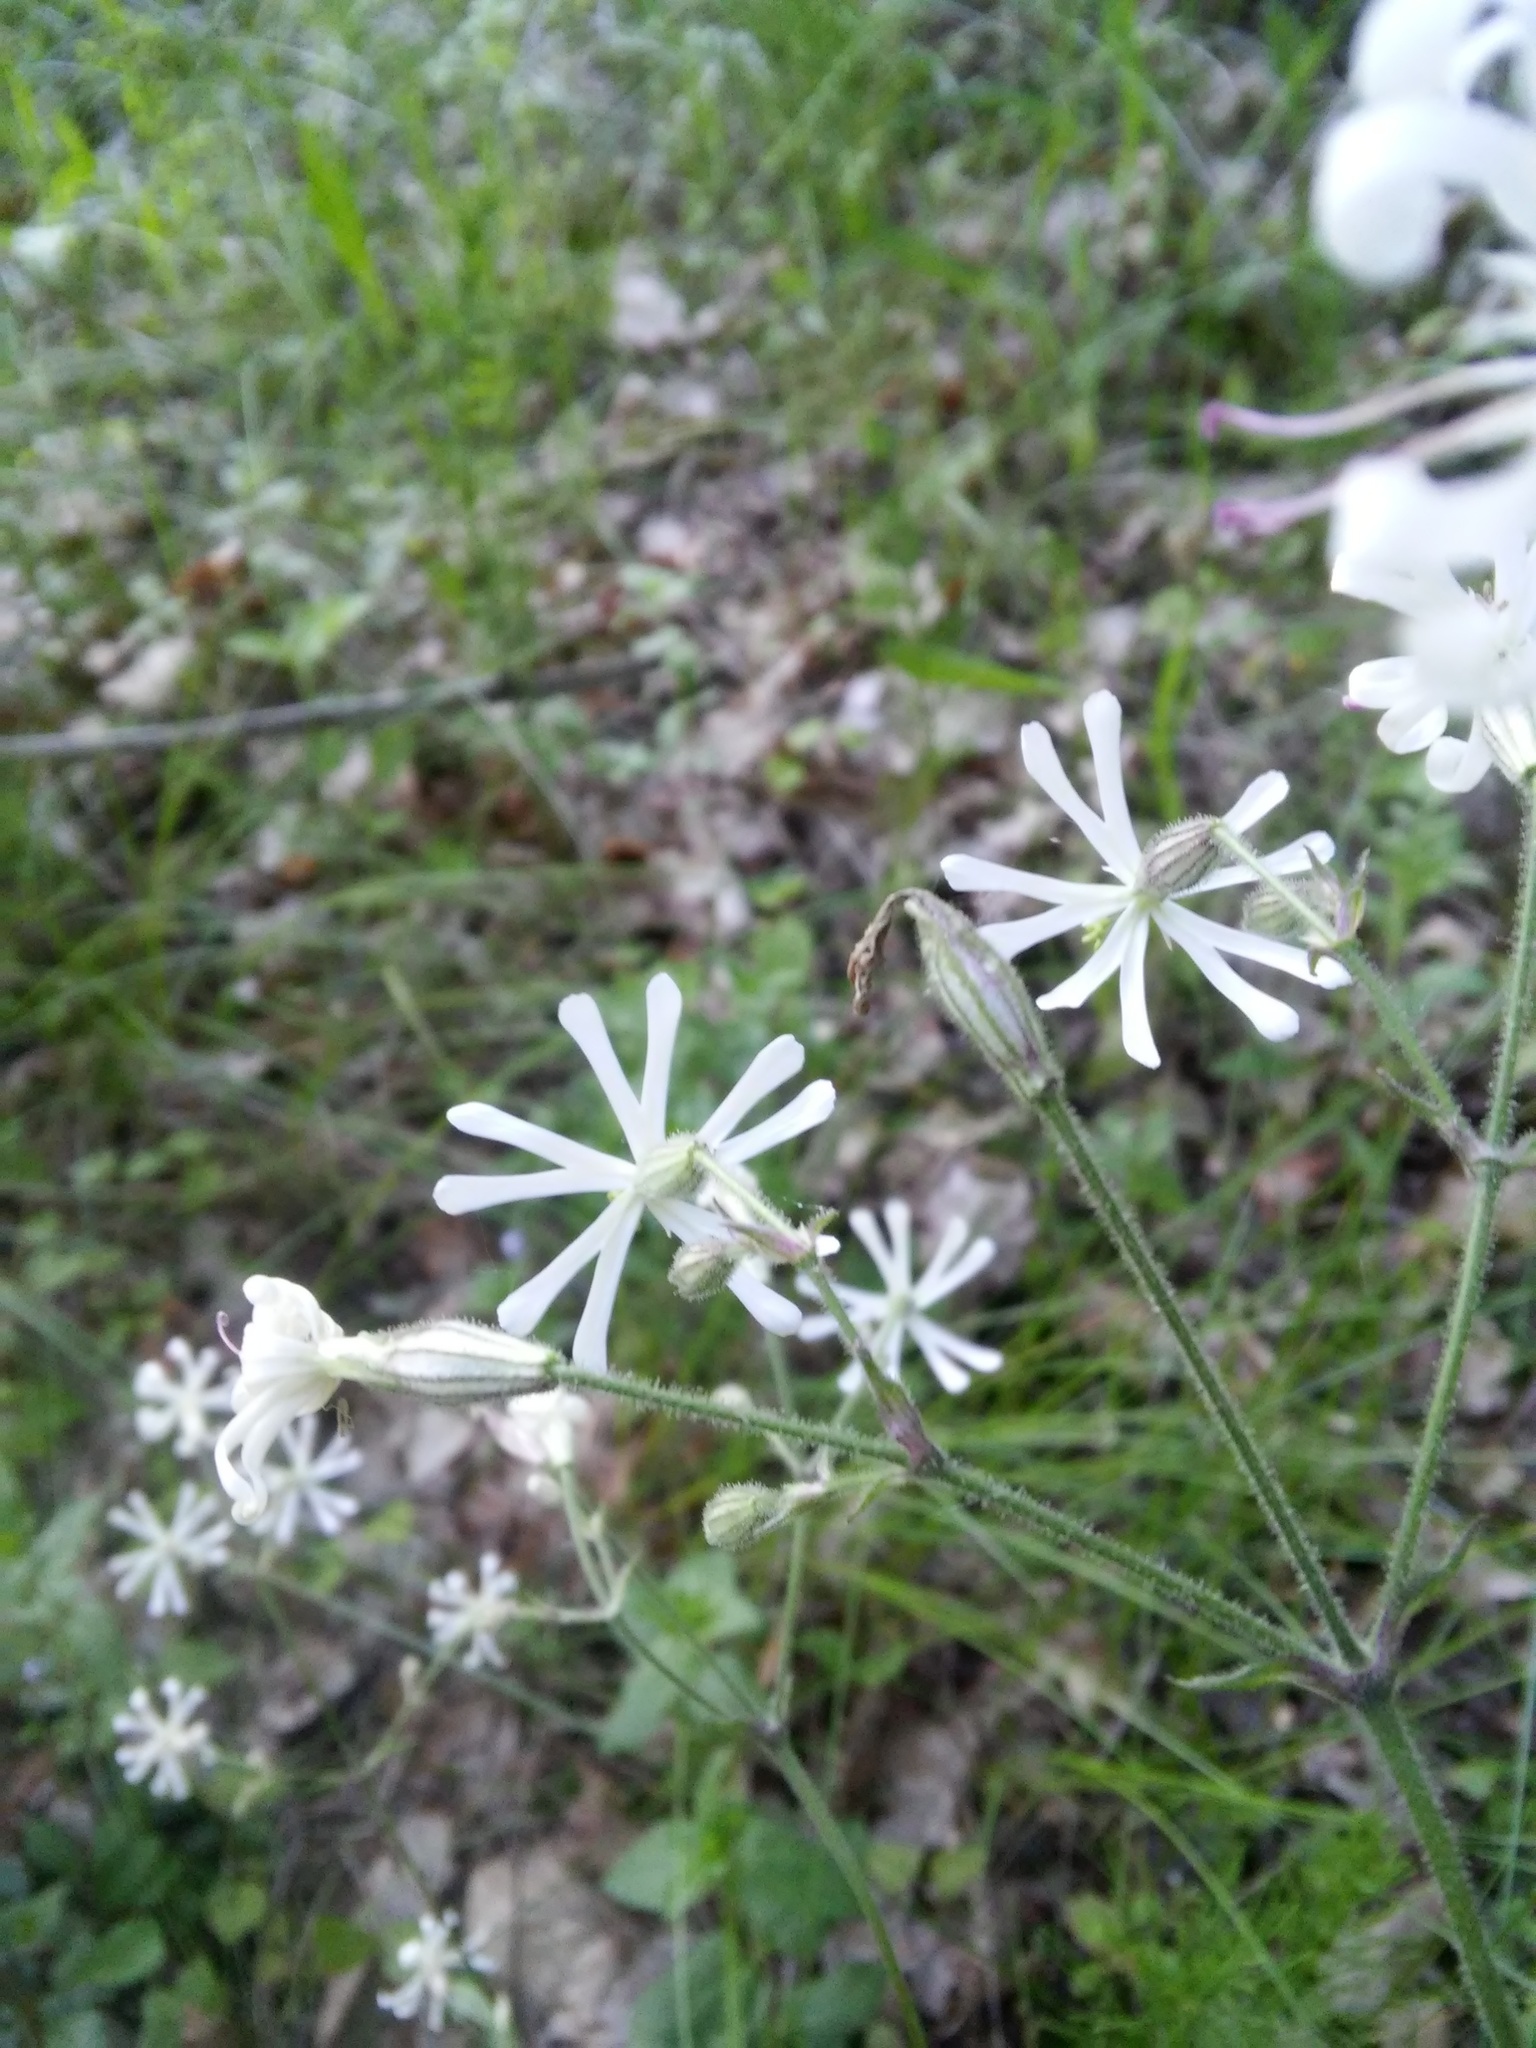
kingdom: Plantae
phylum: Tracheophyta
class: Magnoliopsida
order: Caryophyllales
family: Caryophyllaceae
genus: Silene
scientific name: Silene nutans
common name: Nottingham catchfly
